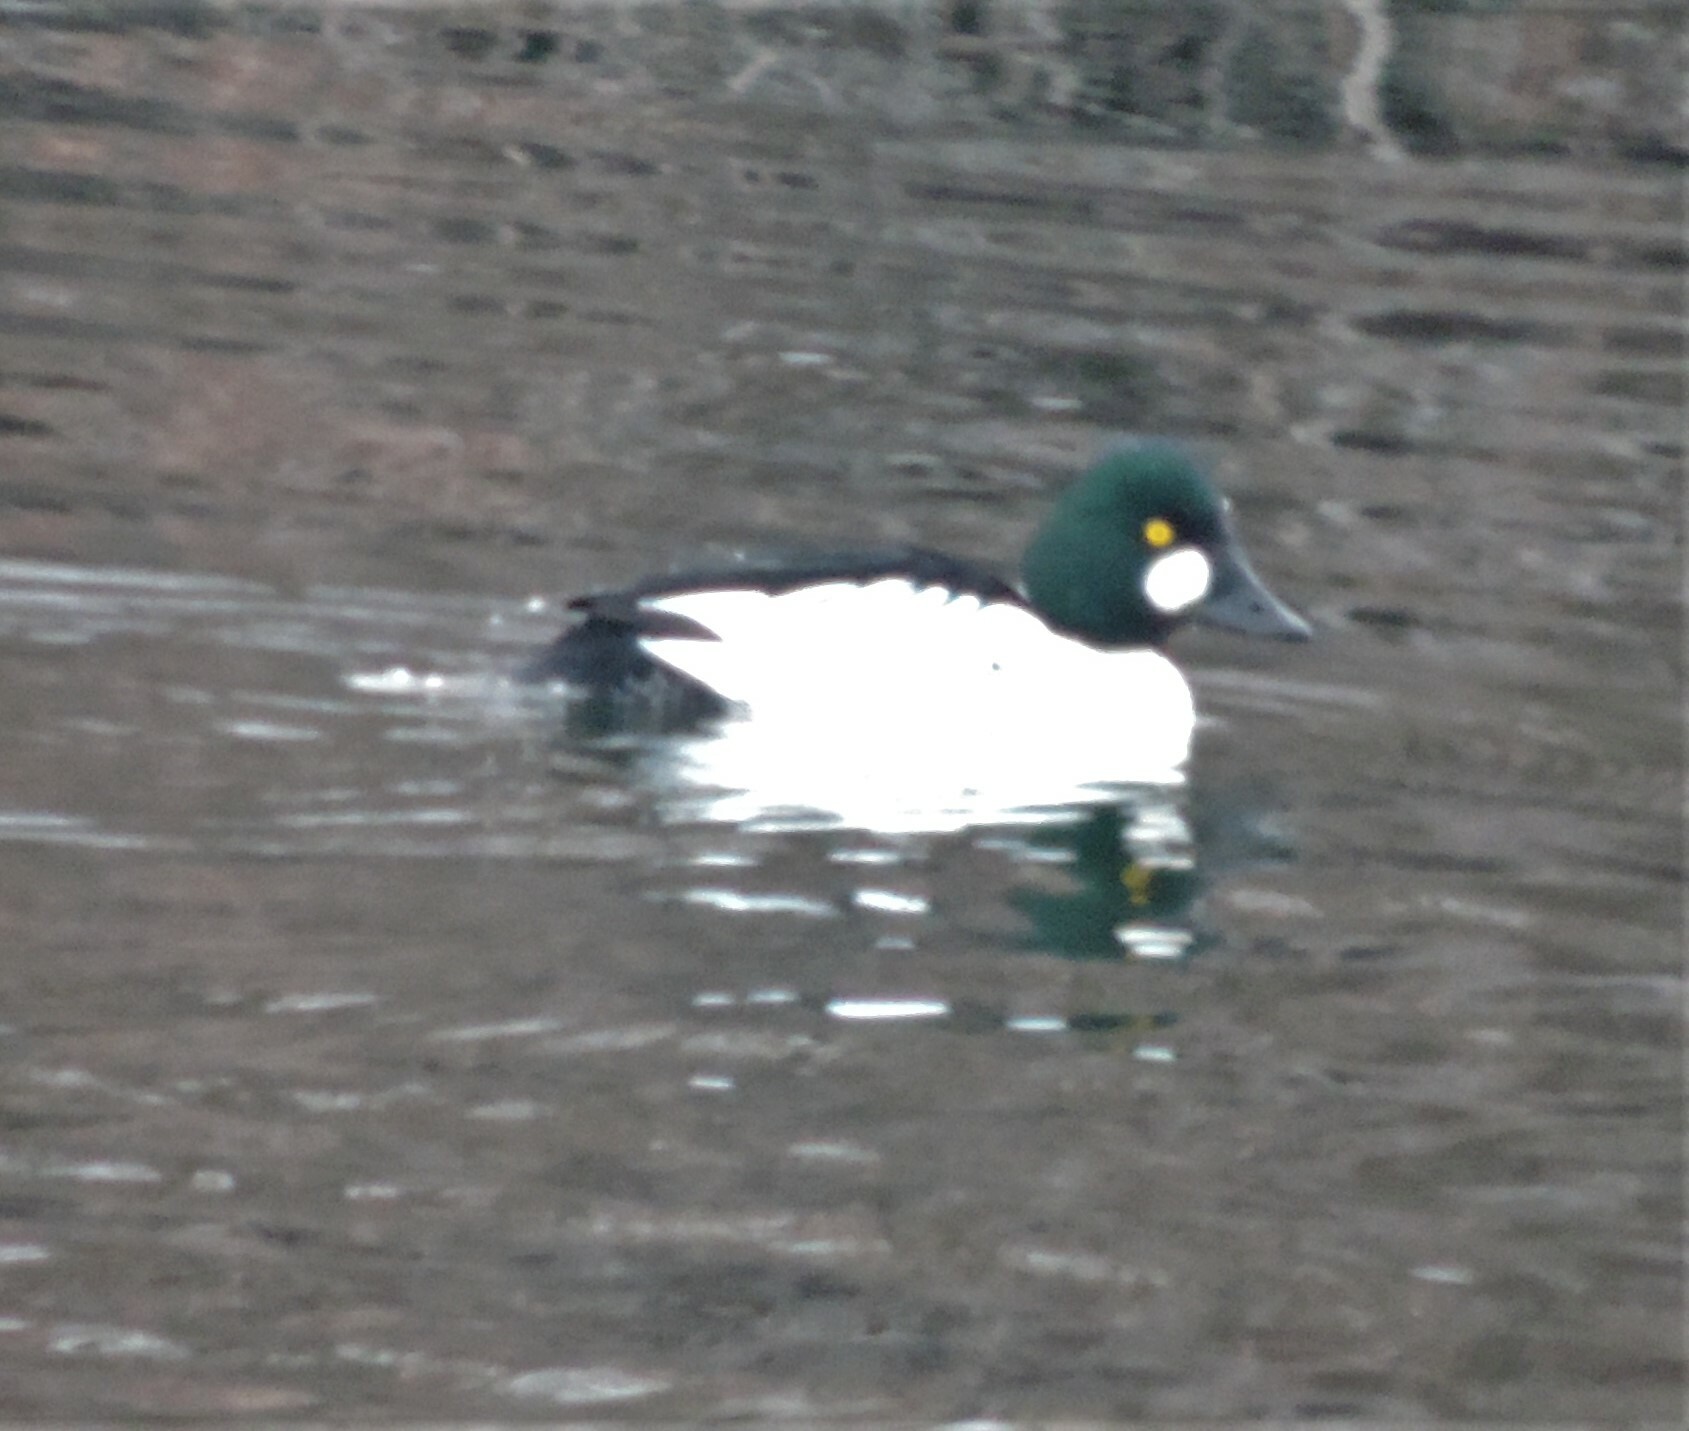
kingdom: Animalia
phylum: Chordata
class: Aves
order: Anseriformes
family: Anatidae
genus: Bucephala
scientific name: Bucephala clangula
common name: Common goldeneye
